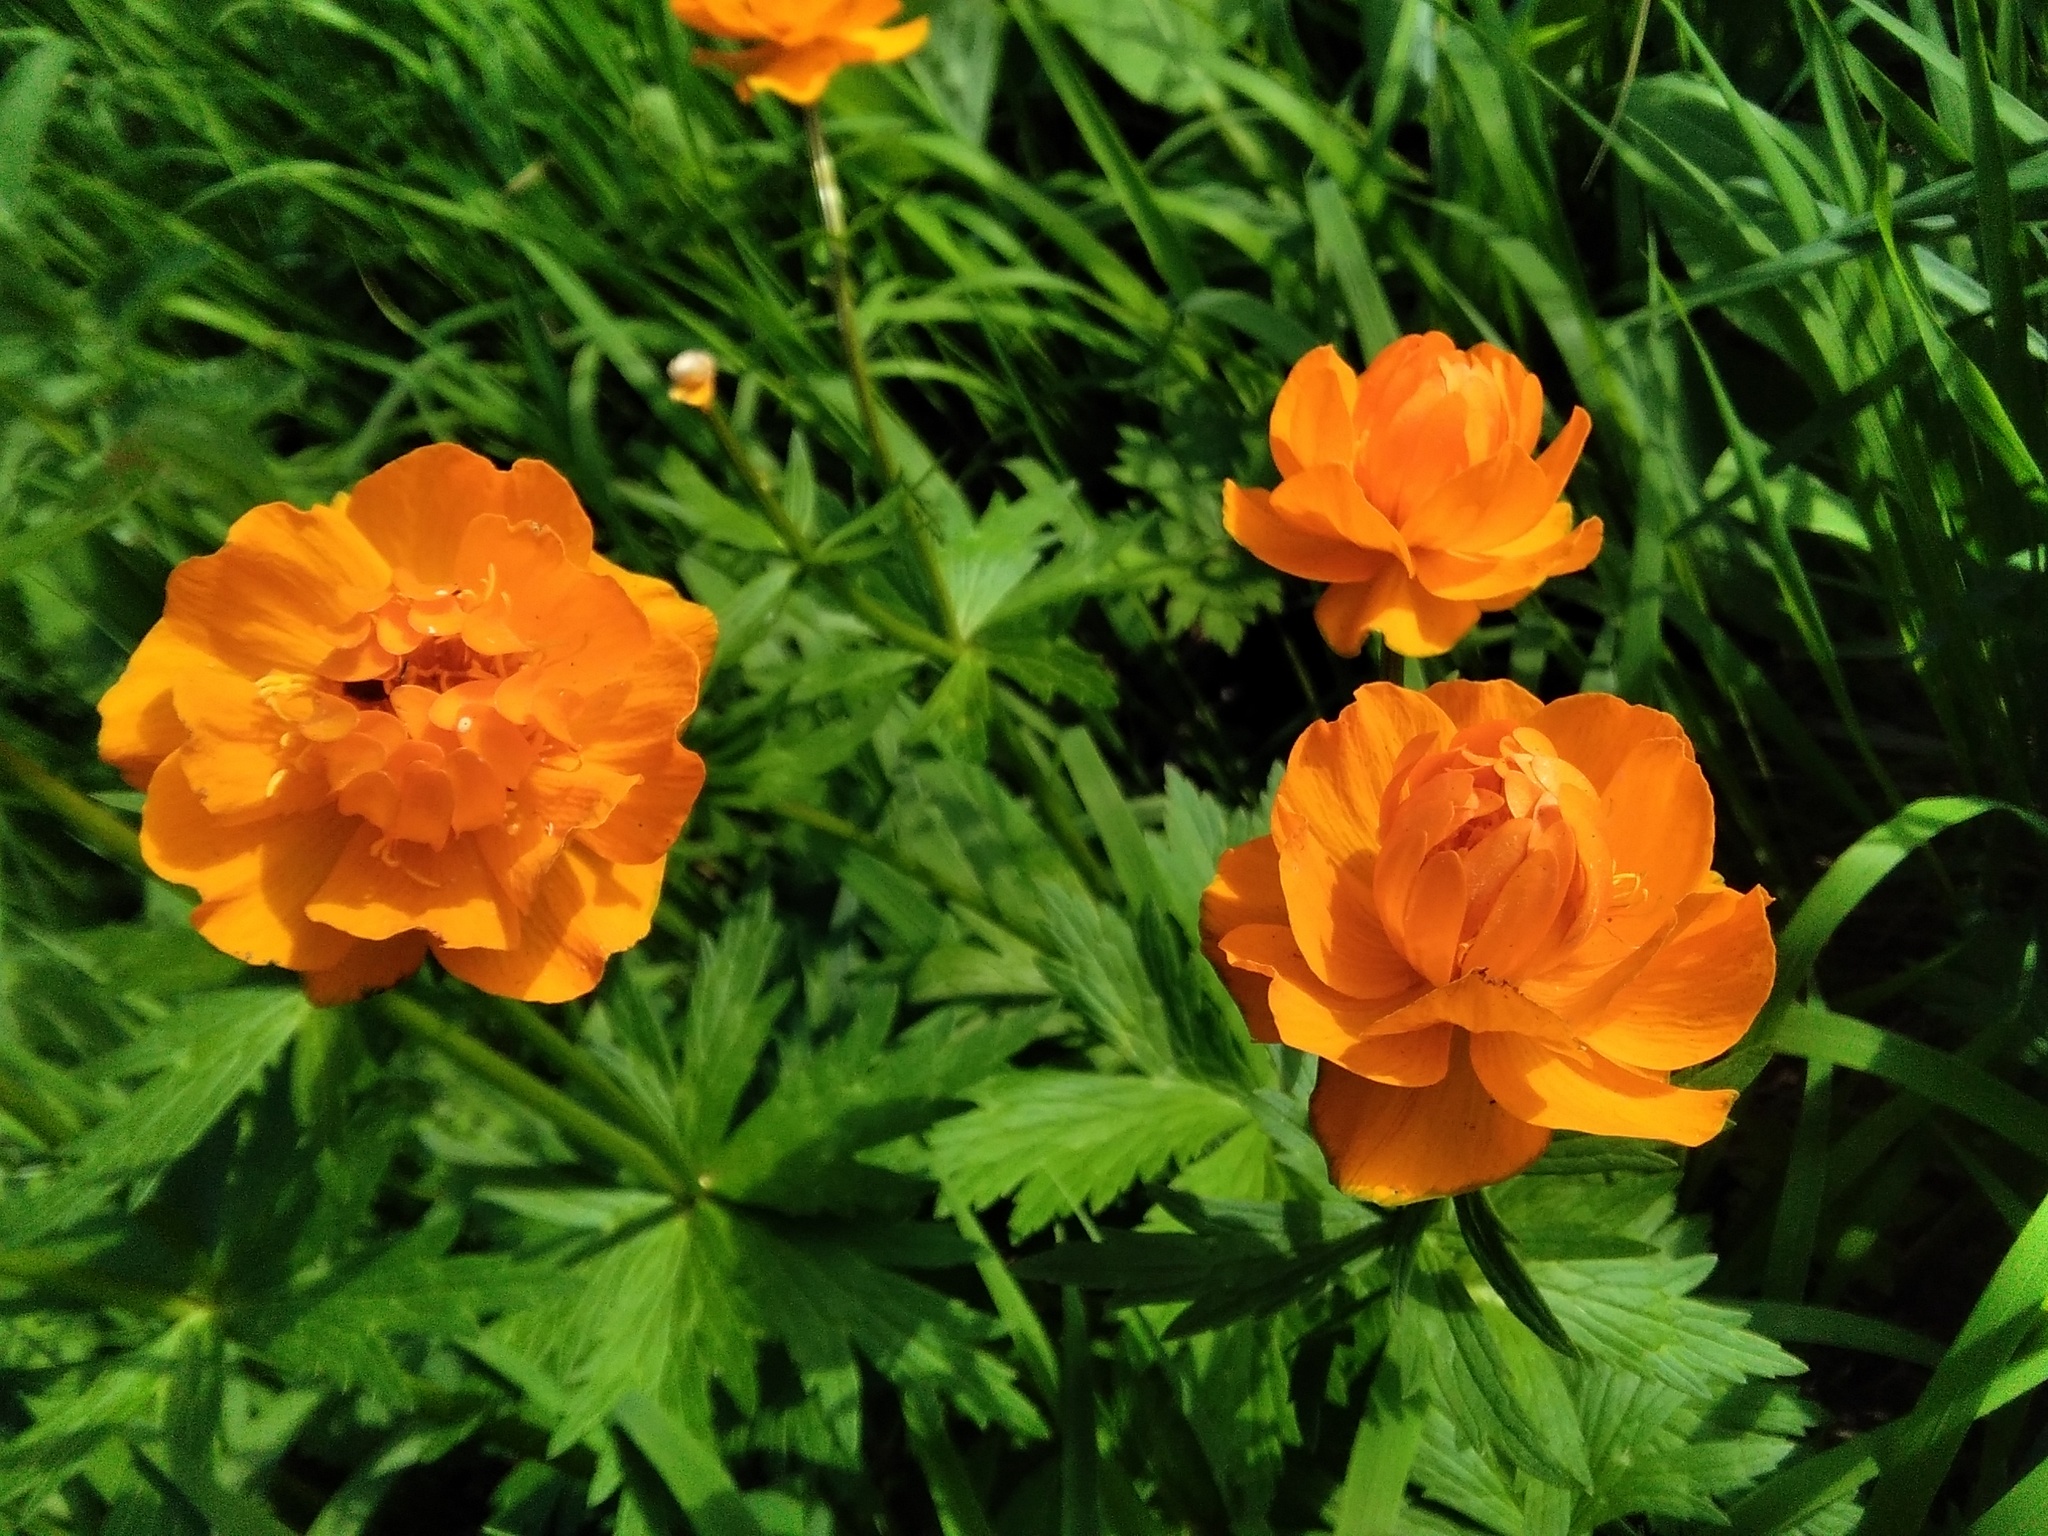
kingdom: Plantae
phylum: Tracheophyta
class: Magnoliopsida
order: Ranunculales
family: Ranunculaceae
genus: Trollius
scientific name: Trollius asiaticus
